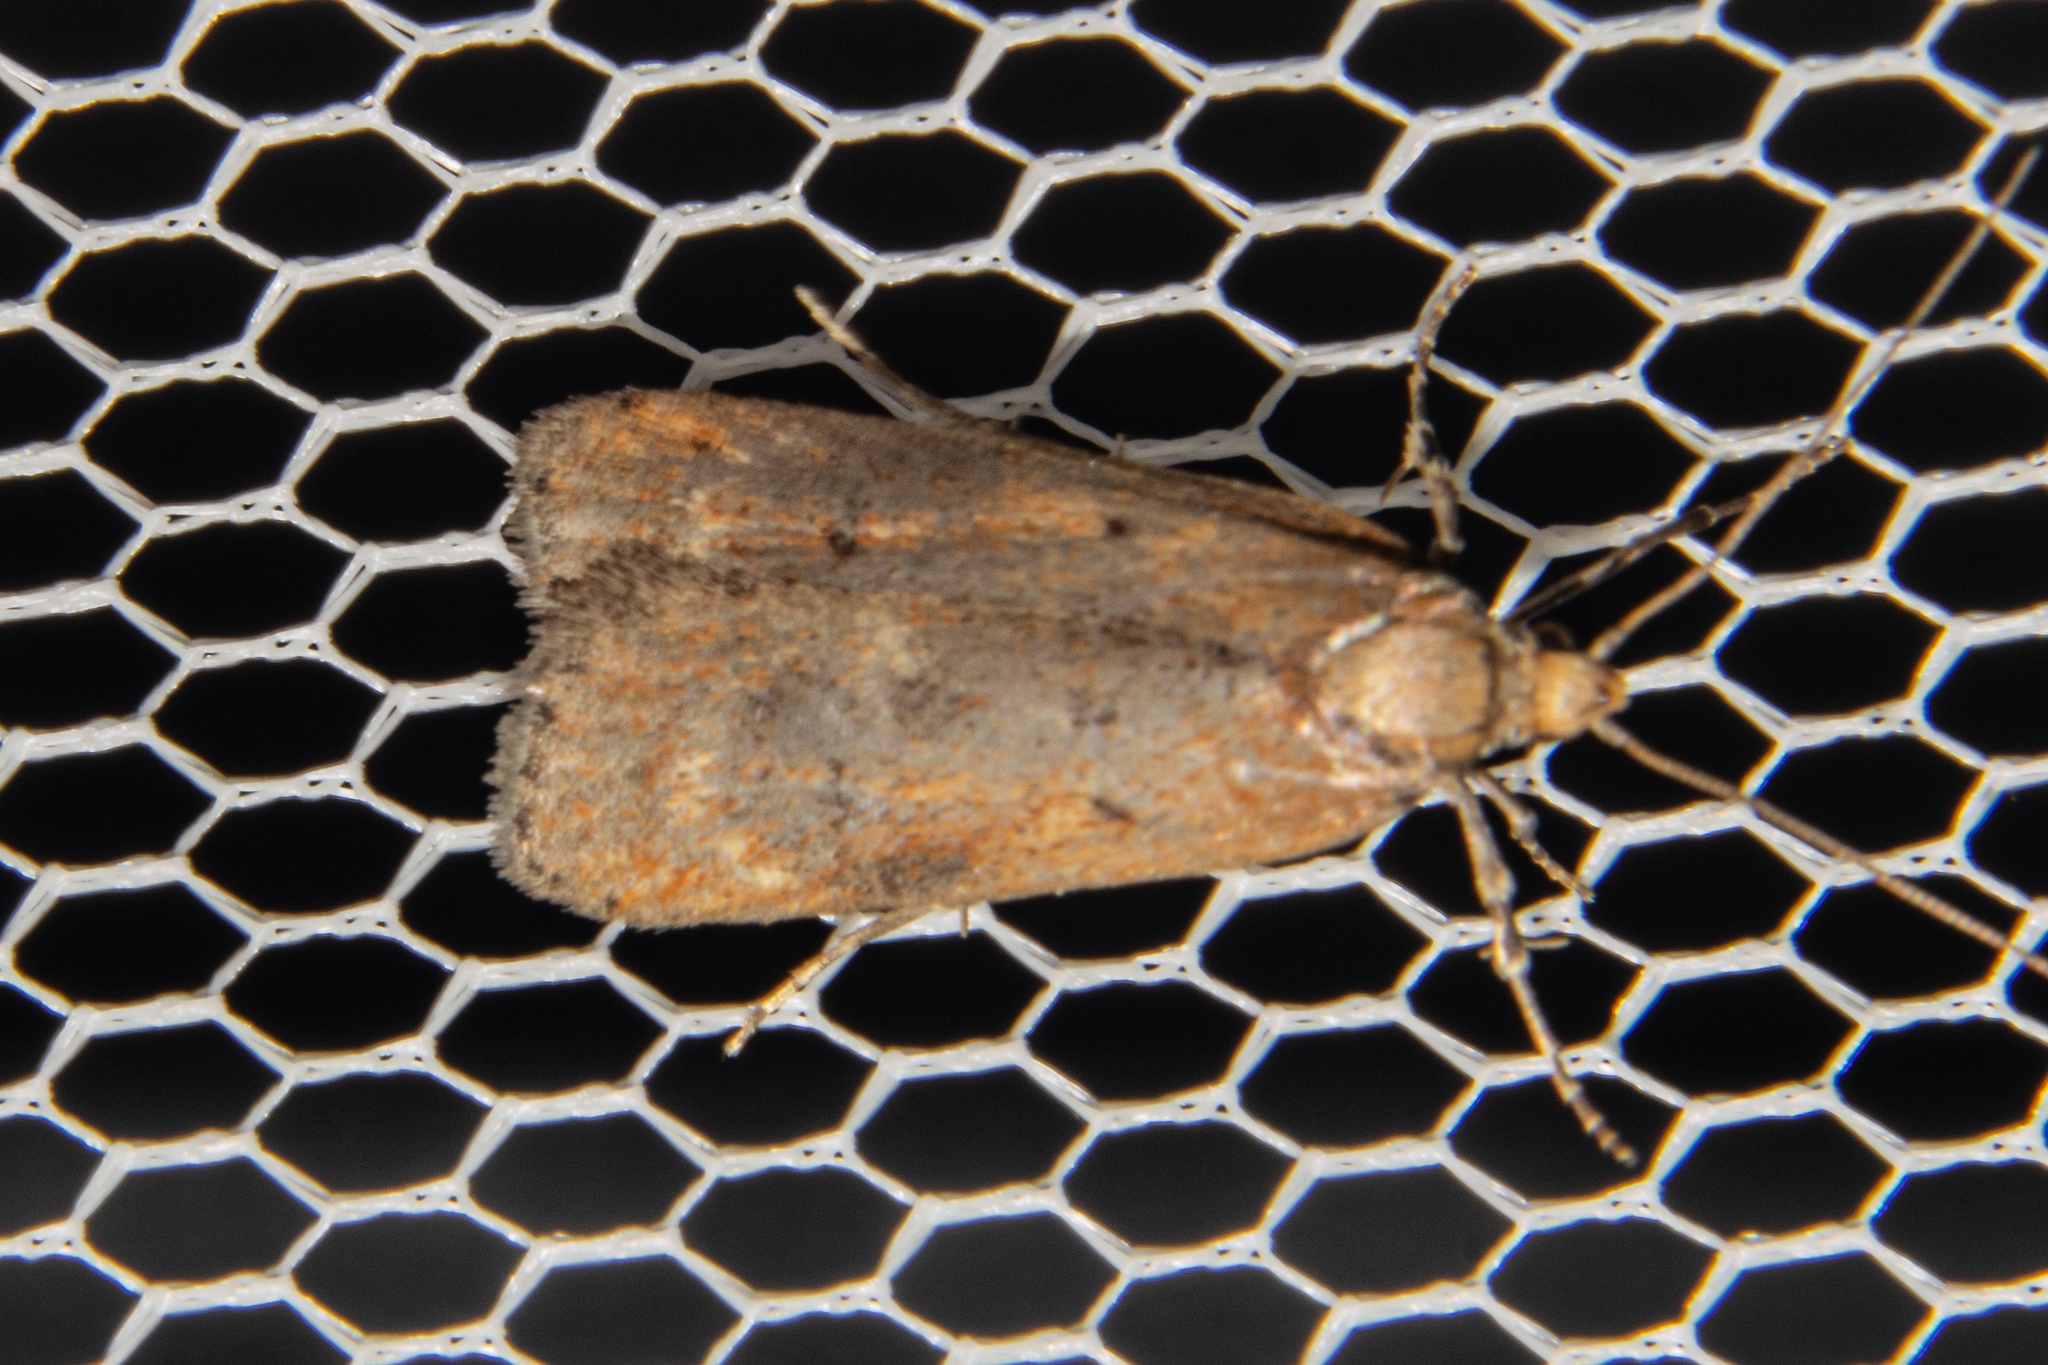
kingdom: Animalia
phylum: Arthropoda
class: Insecta
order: Lepidoptera
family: Depressariidae
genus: Phaeosaces
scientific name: Phaeosaces apocrypta
